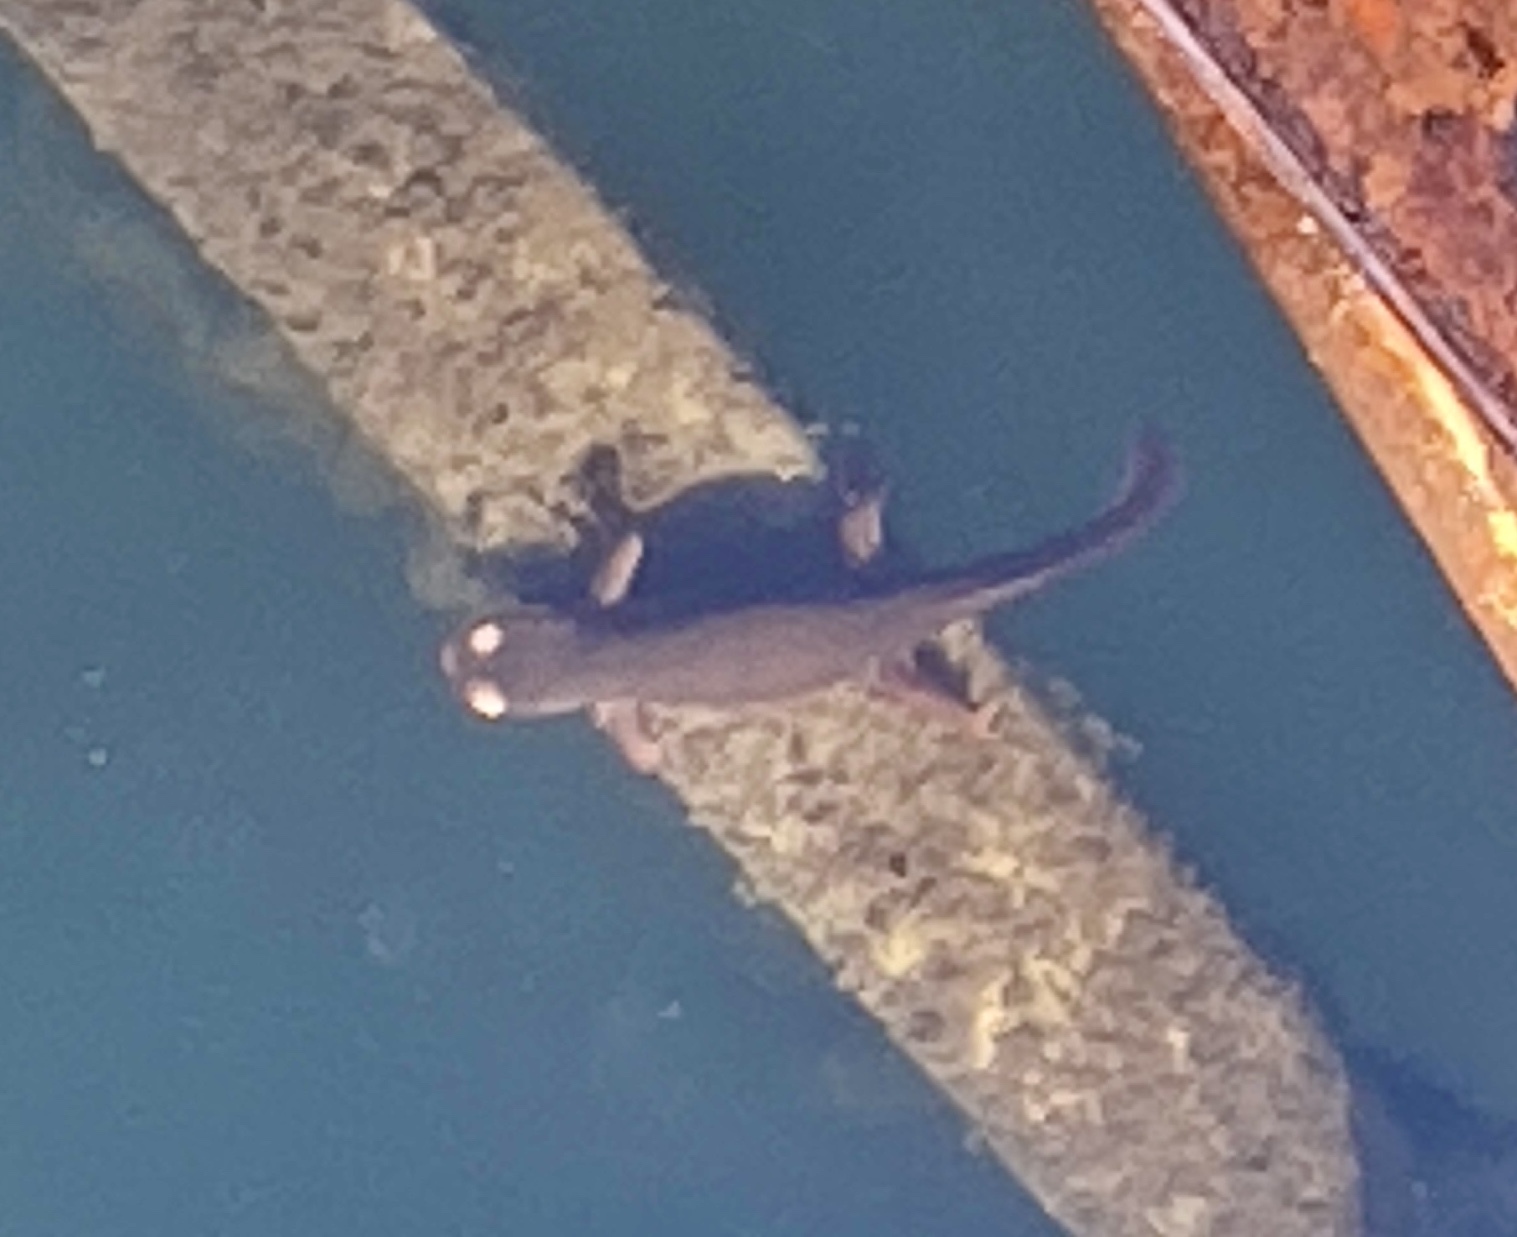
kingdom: Animalia
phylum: Chordata
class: Amphibia
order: Caudata
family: Salamandridae
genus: Taricha
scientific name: Taricha sierrae
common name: Sierra newt
